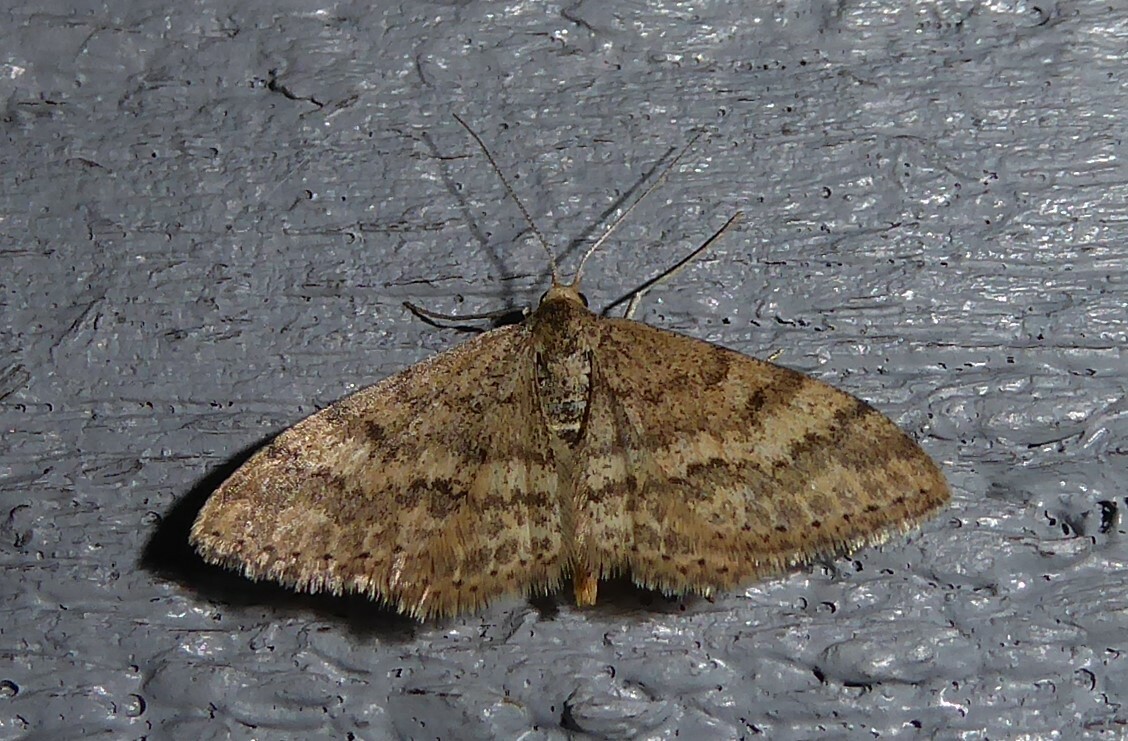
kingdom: Animalia
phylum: Arthropoda
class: Insecta
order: Lepidoptera
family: Geometridae
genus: Scopula
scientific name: Scopula rubraria
